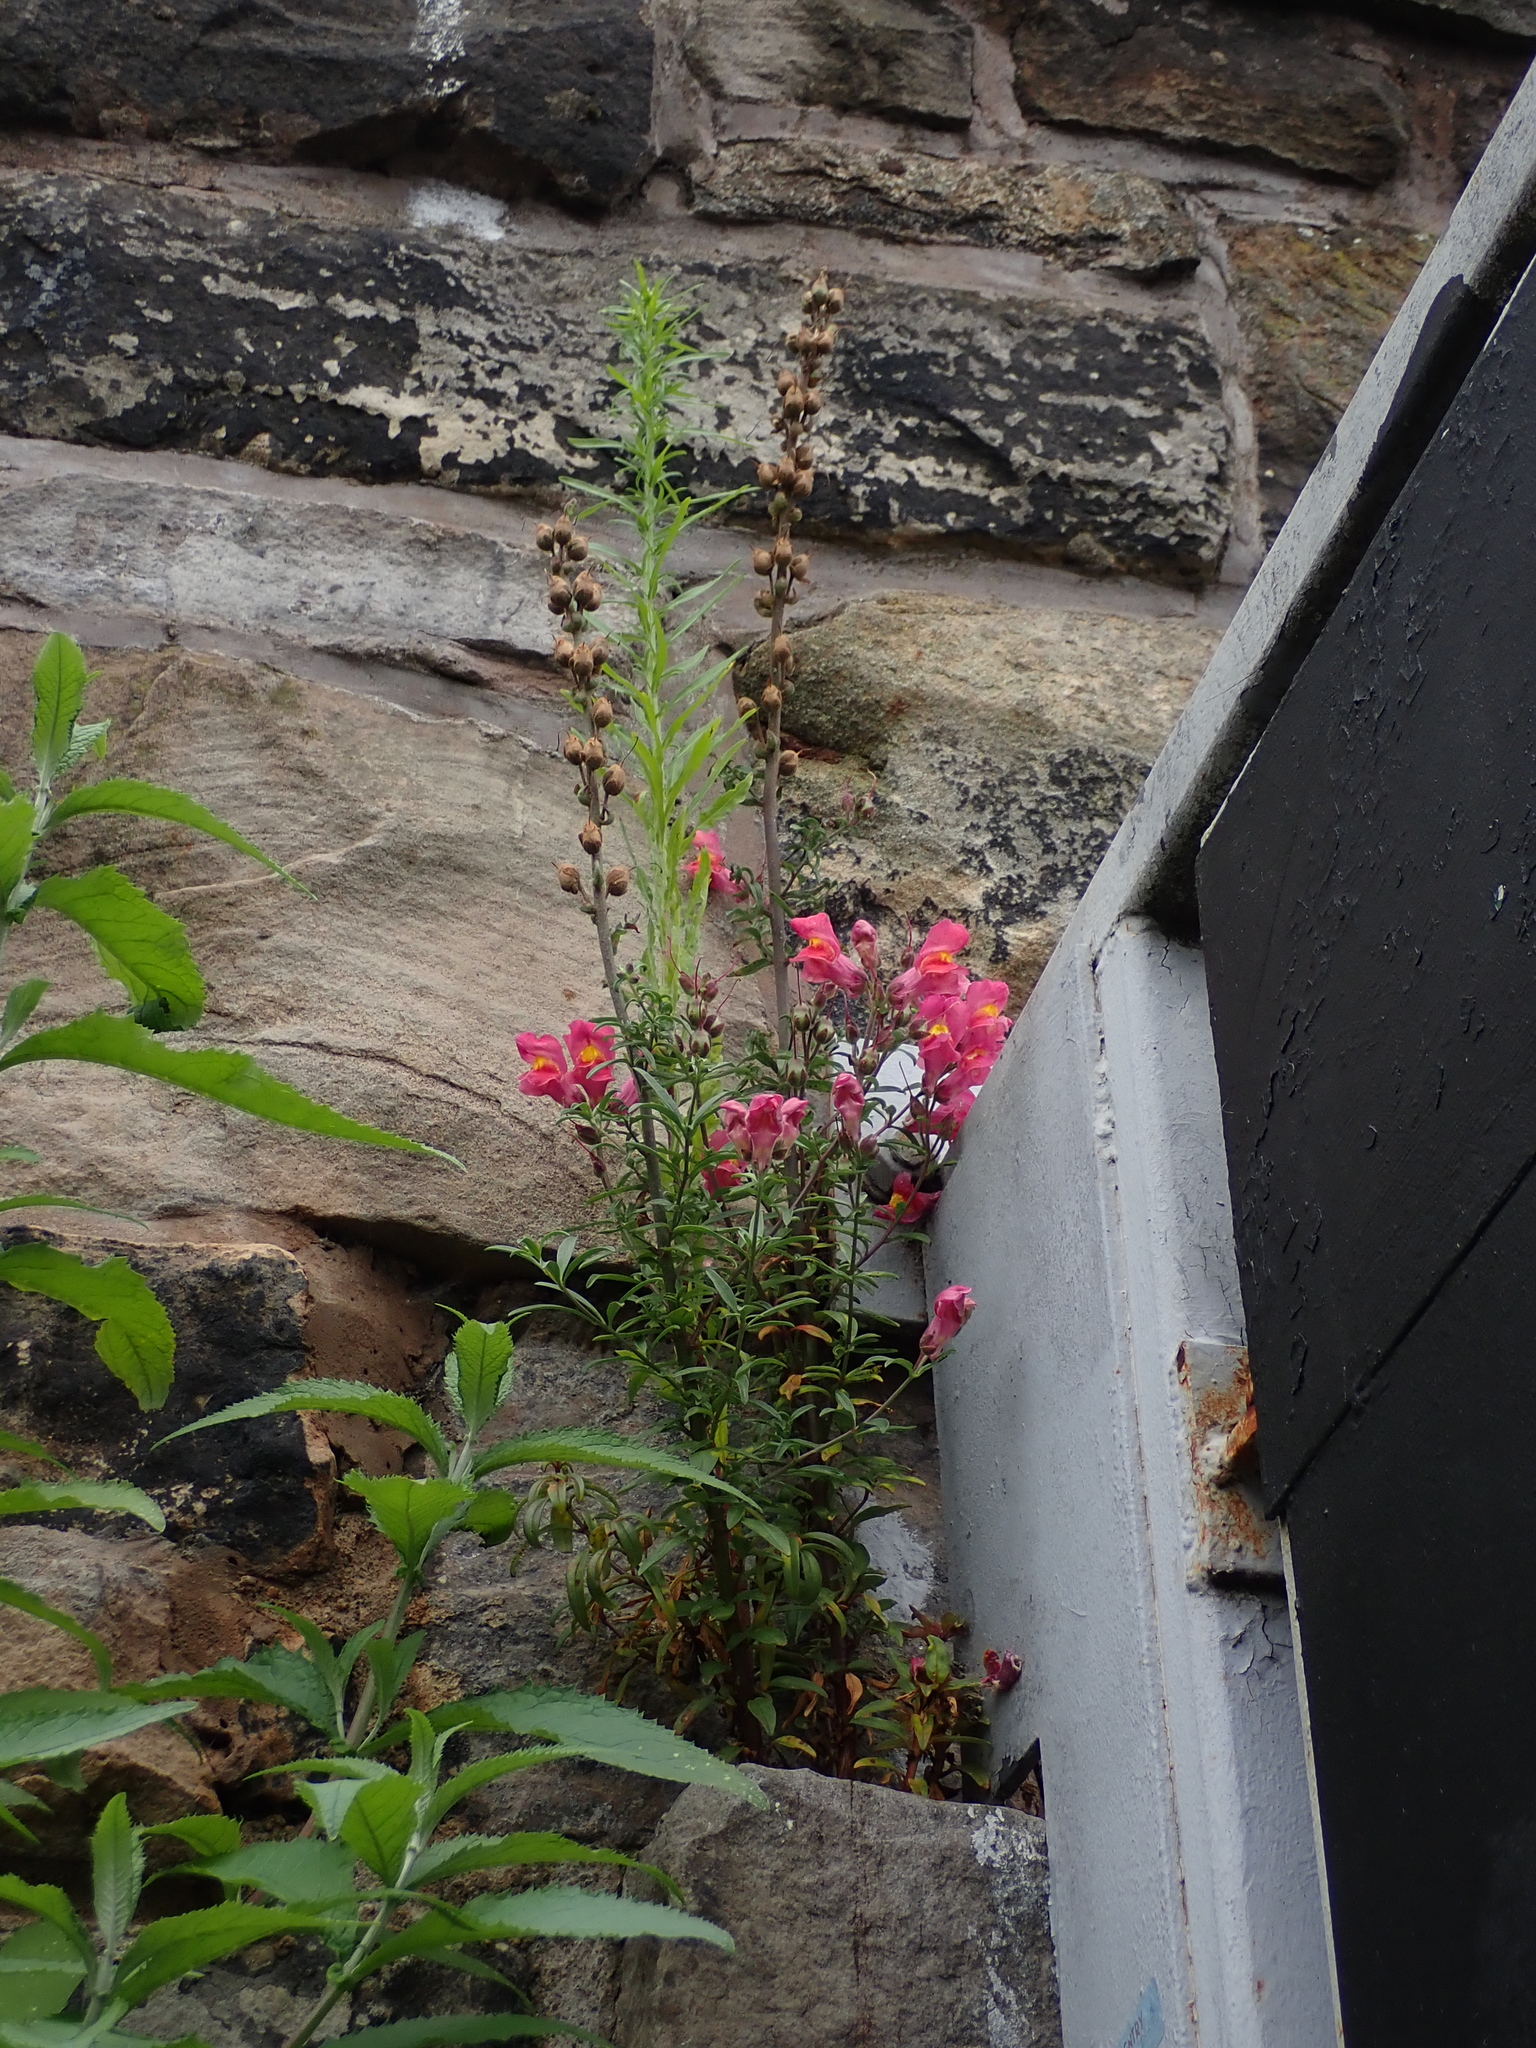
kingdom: Plantae
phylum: Tracheophyta
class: Magnoliopsida
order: Lamiales
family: Plantaginaceae
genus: Antirrhinum
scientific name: Antirrhinum majus
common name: Snapdragon
